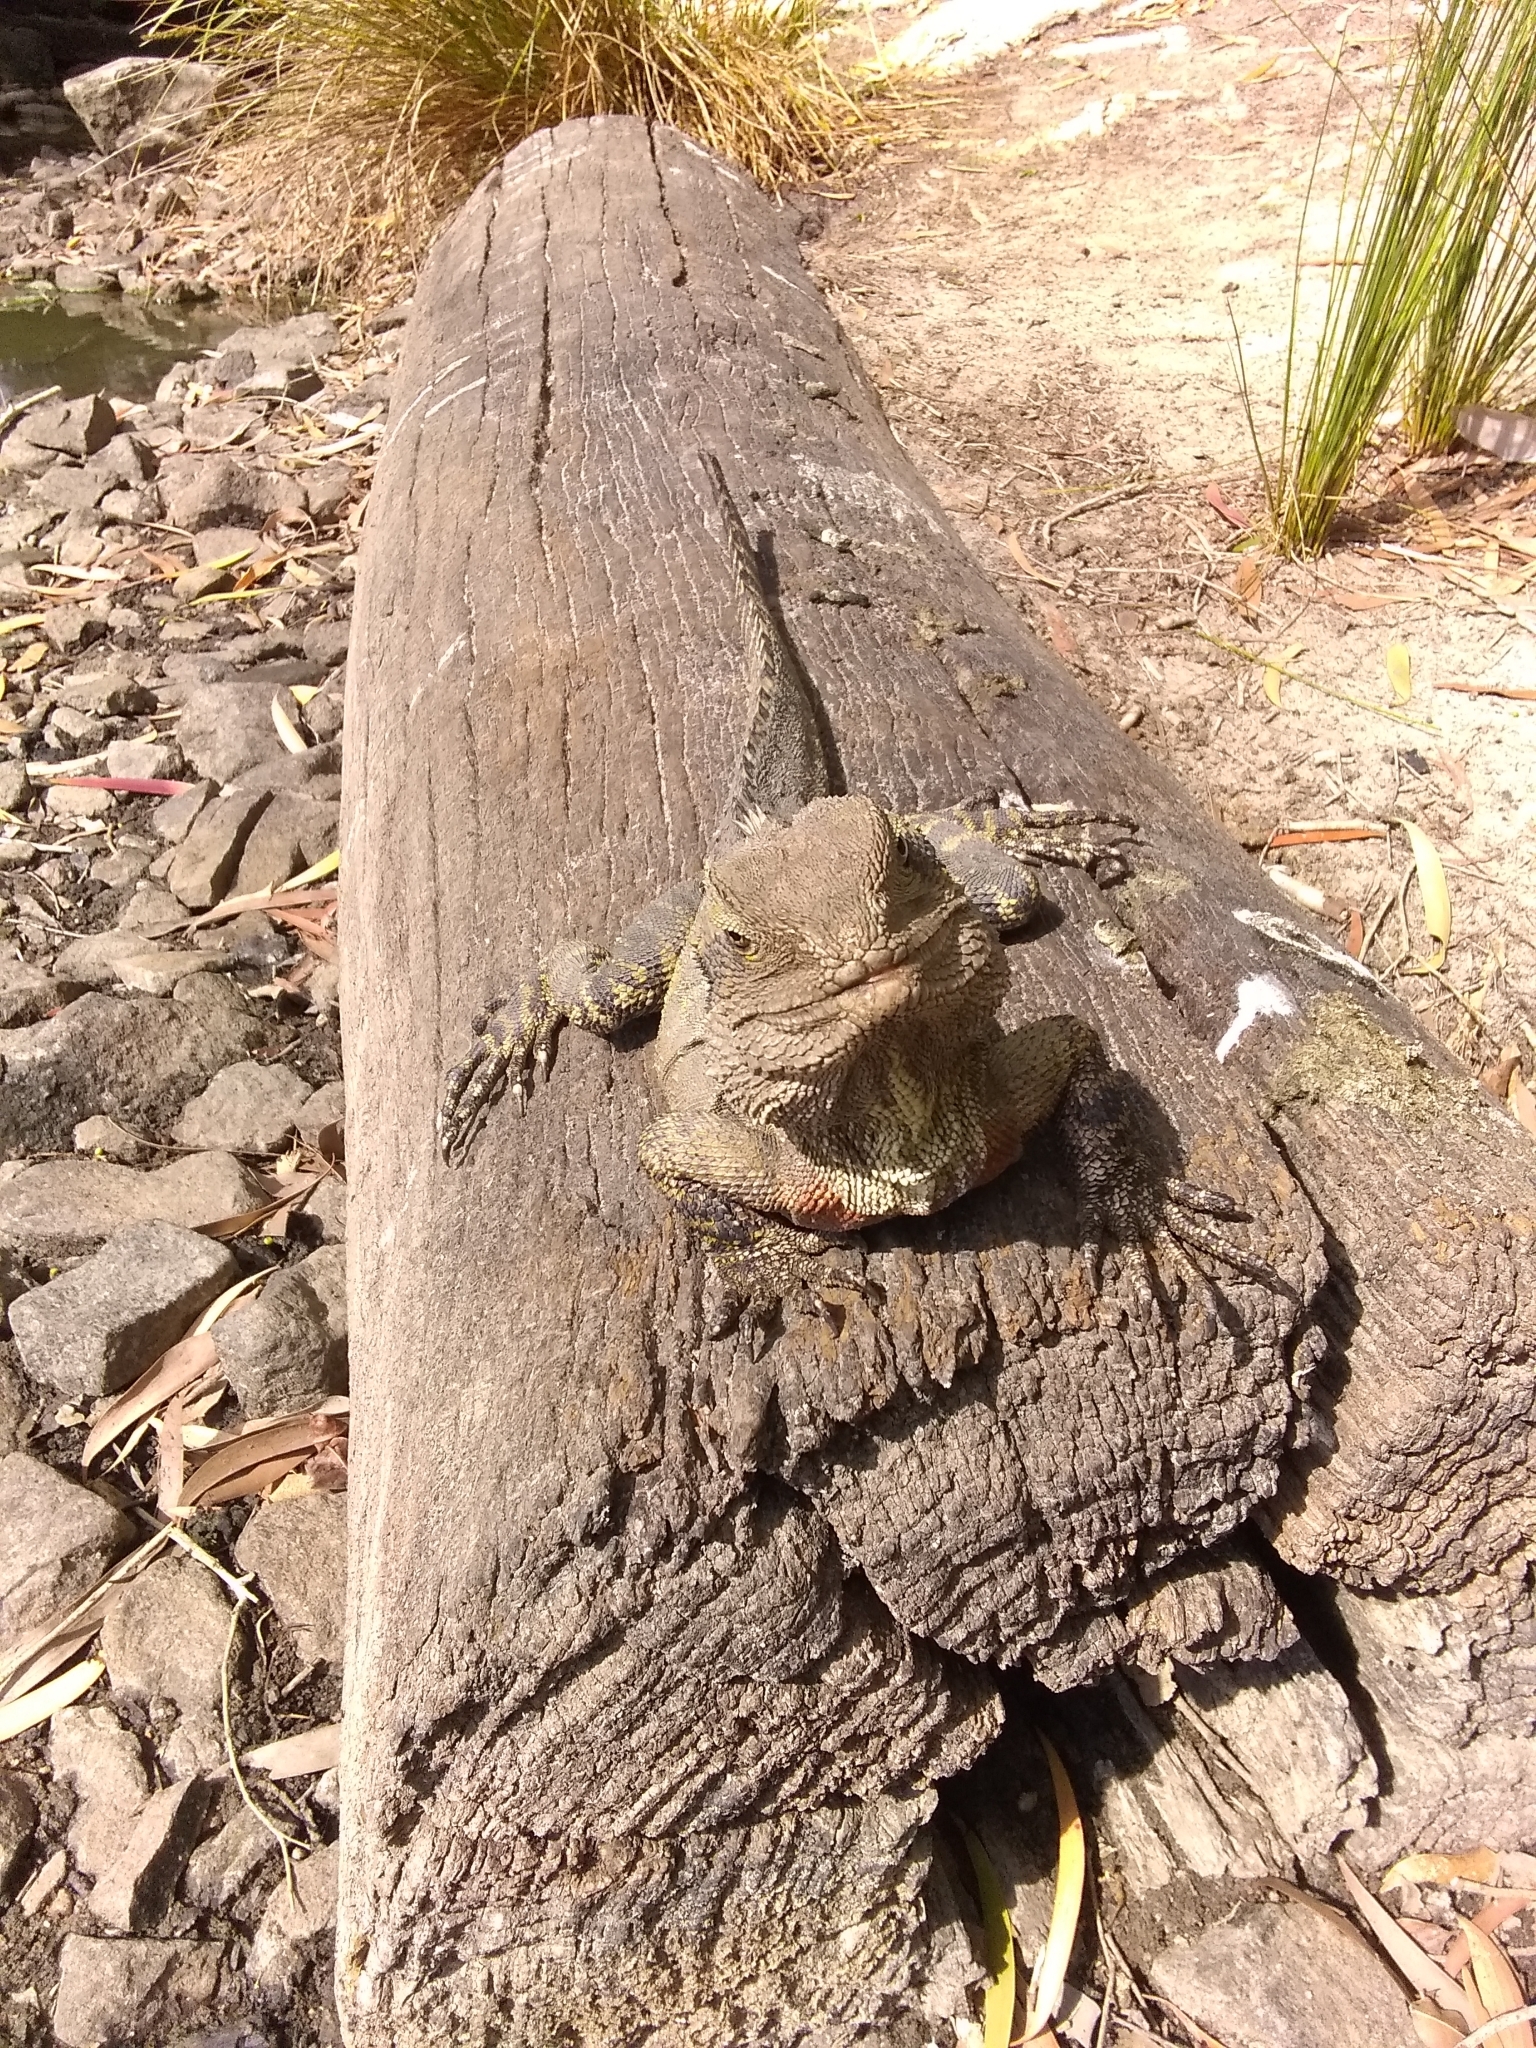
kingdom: Animalia
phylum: Chordata
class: Squamata
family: Agamidae
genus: Intellagama
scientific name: Intellagama lesueurii
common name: Eastern water dragon
